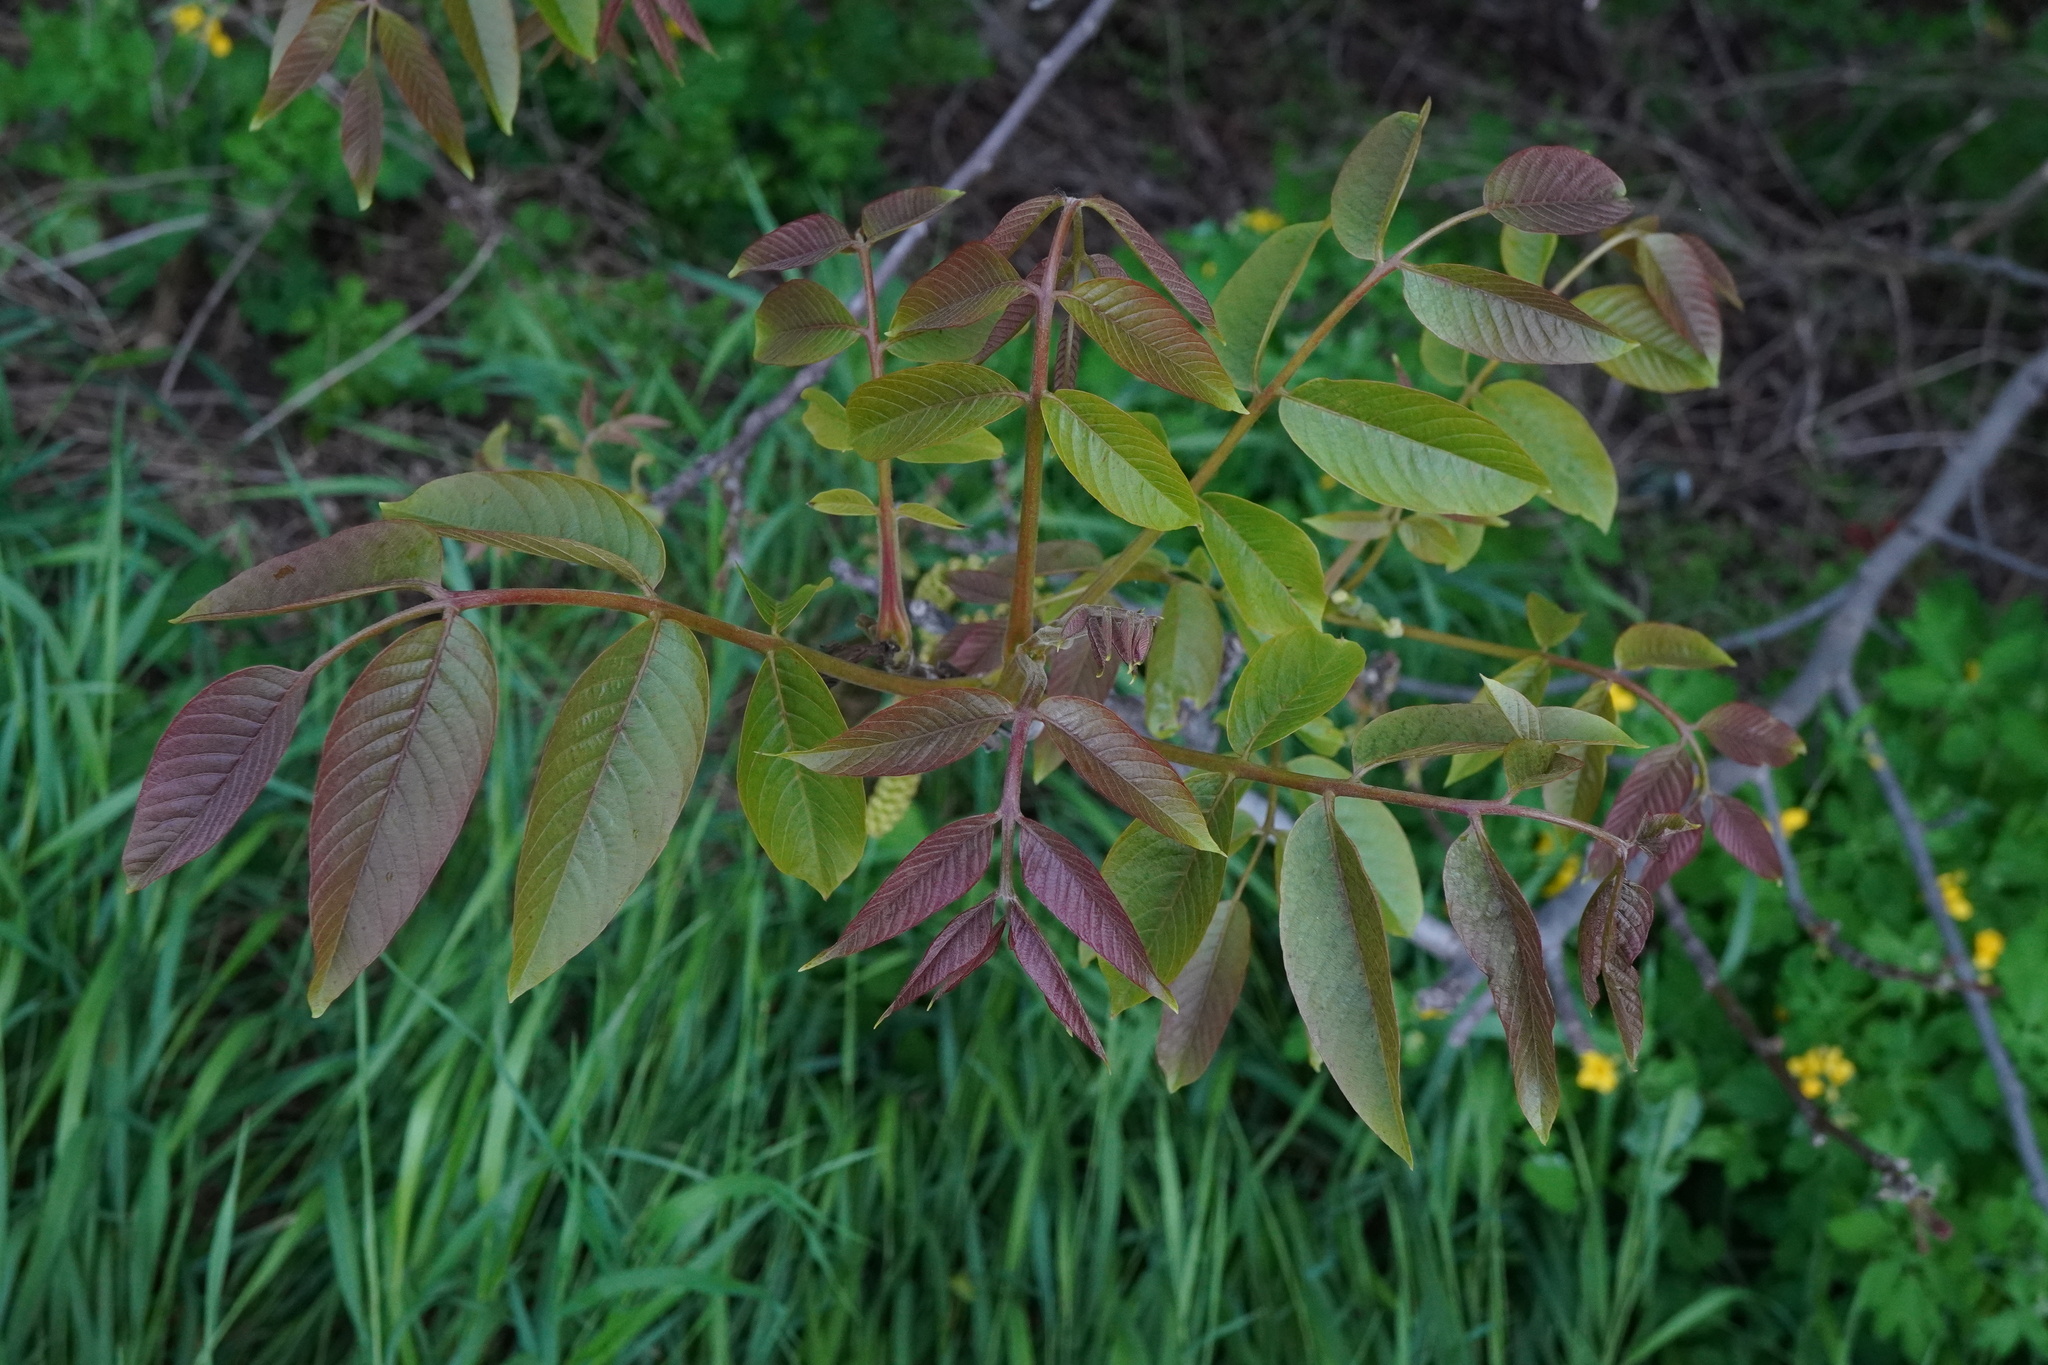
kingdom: Plantae
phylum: Tracheophyta
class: Magnoliopsida
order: Fagales
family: Juglandaceae
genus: Juglans
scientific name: Juglans regia
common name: Walnut
